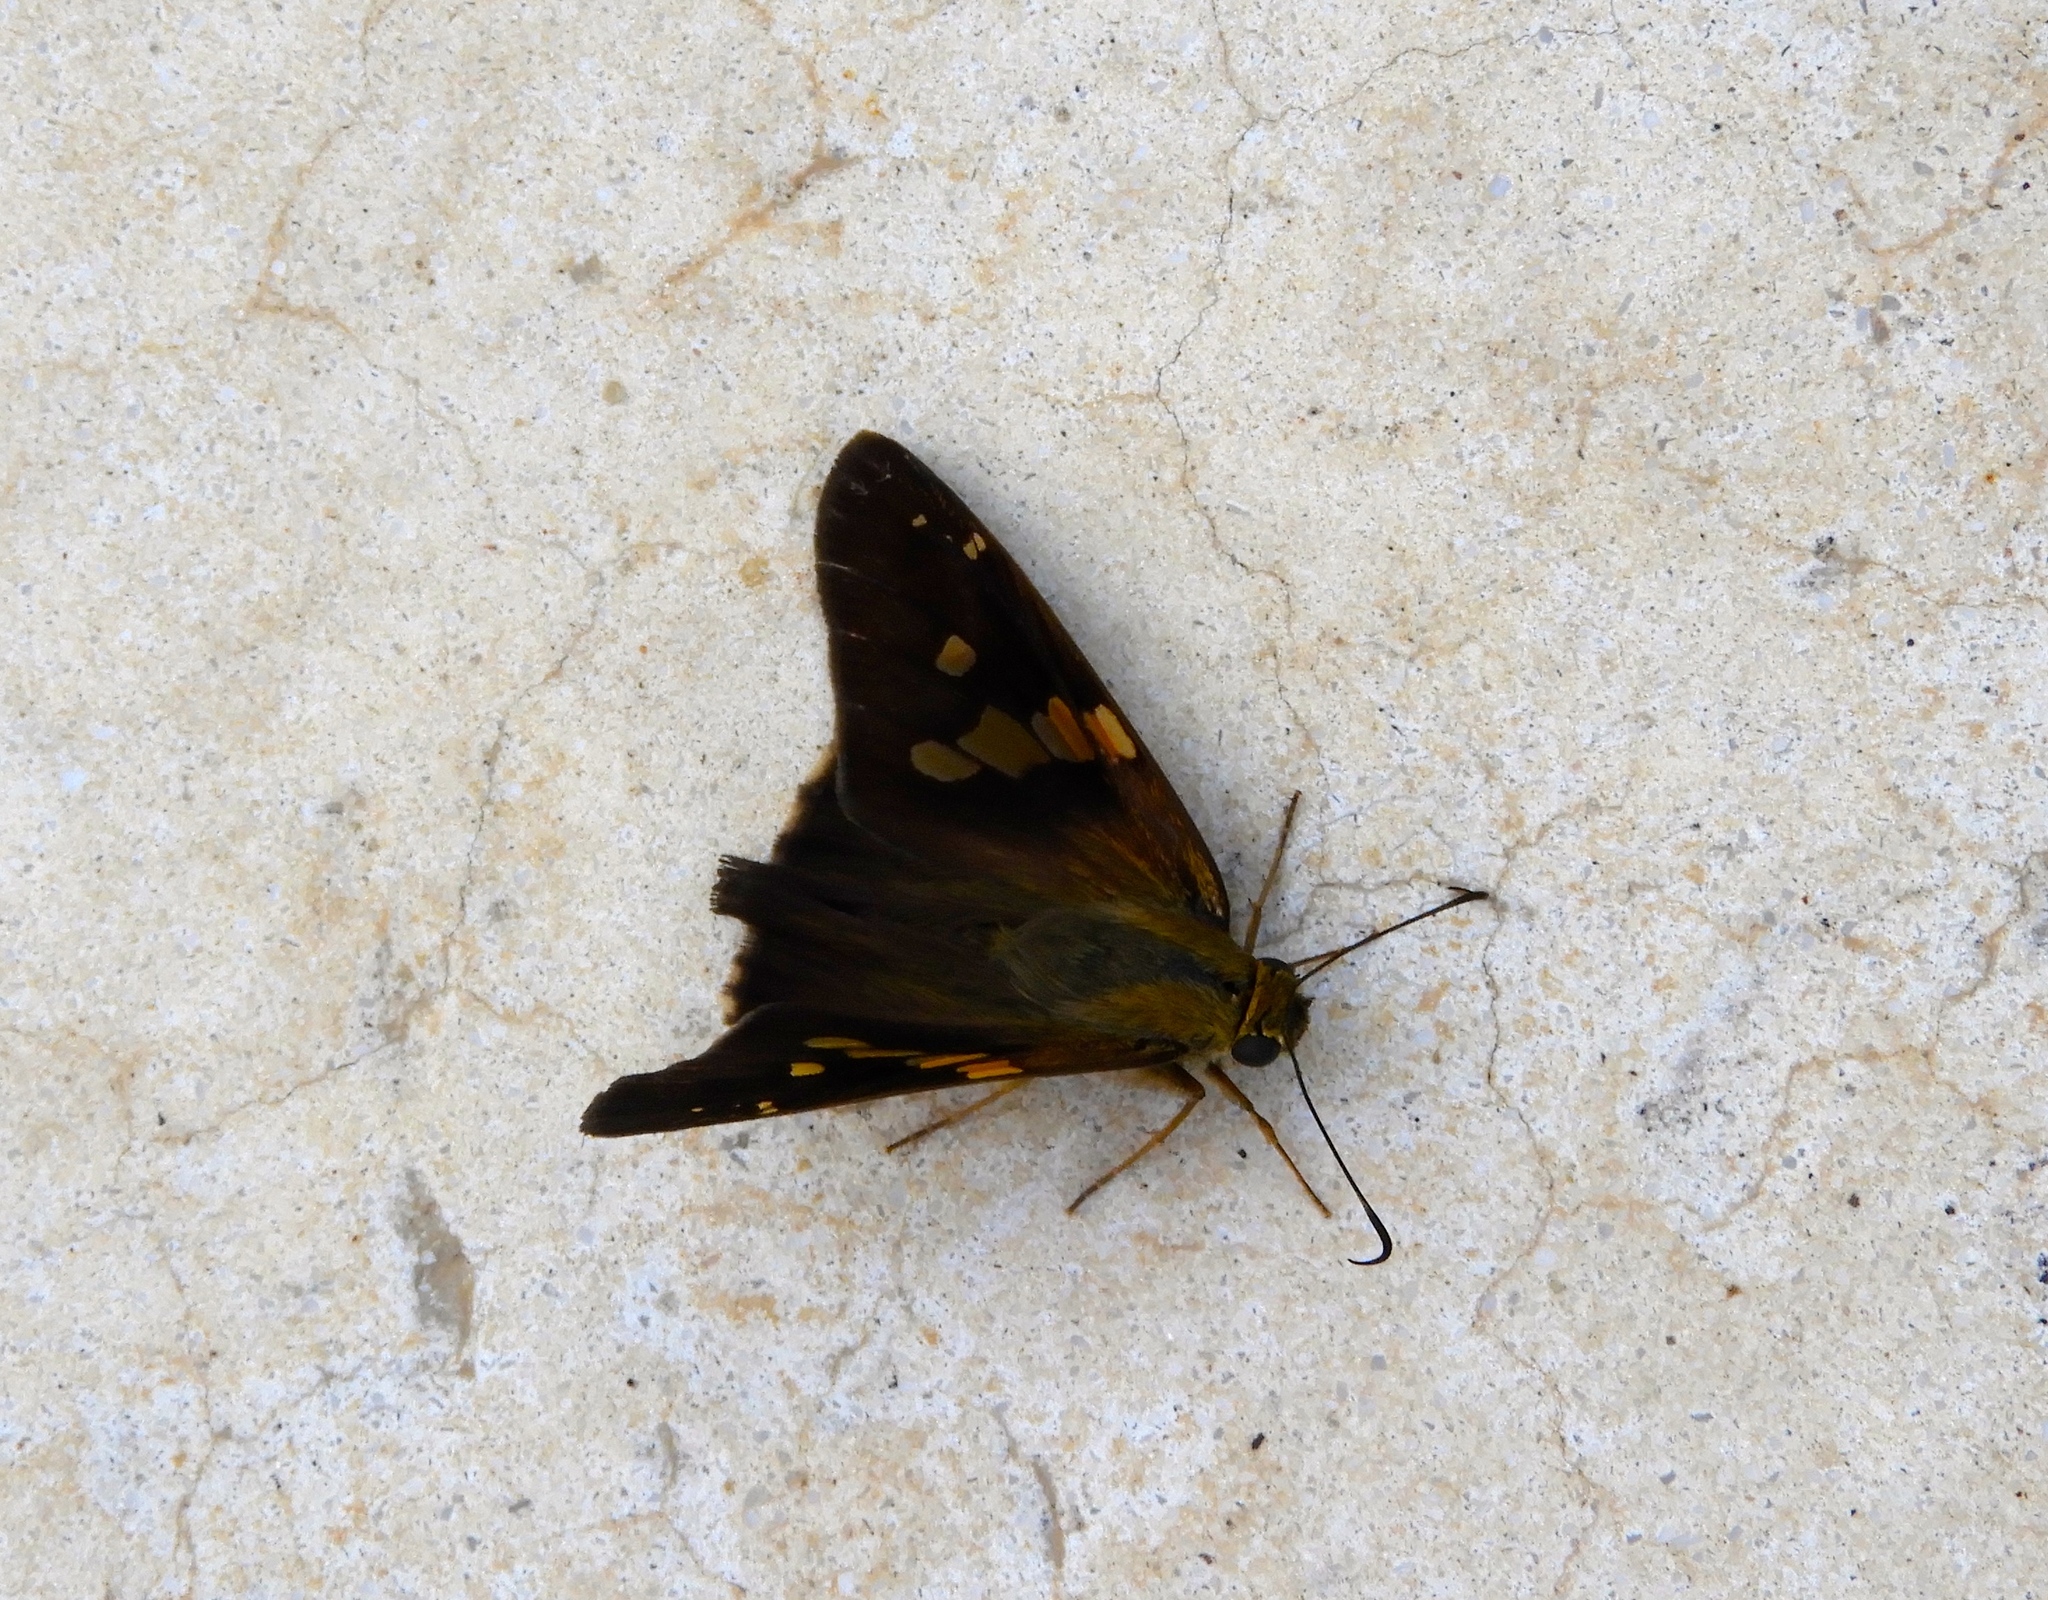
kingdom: Animalia
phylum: Arthropoda
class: Insecta
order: Lepidoptera
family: Hesperiidae
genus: Aguna
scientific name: Aguna asander
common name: Gold-spotted aguna
